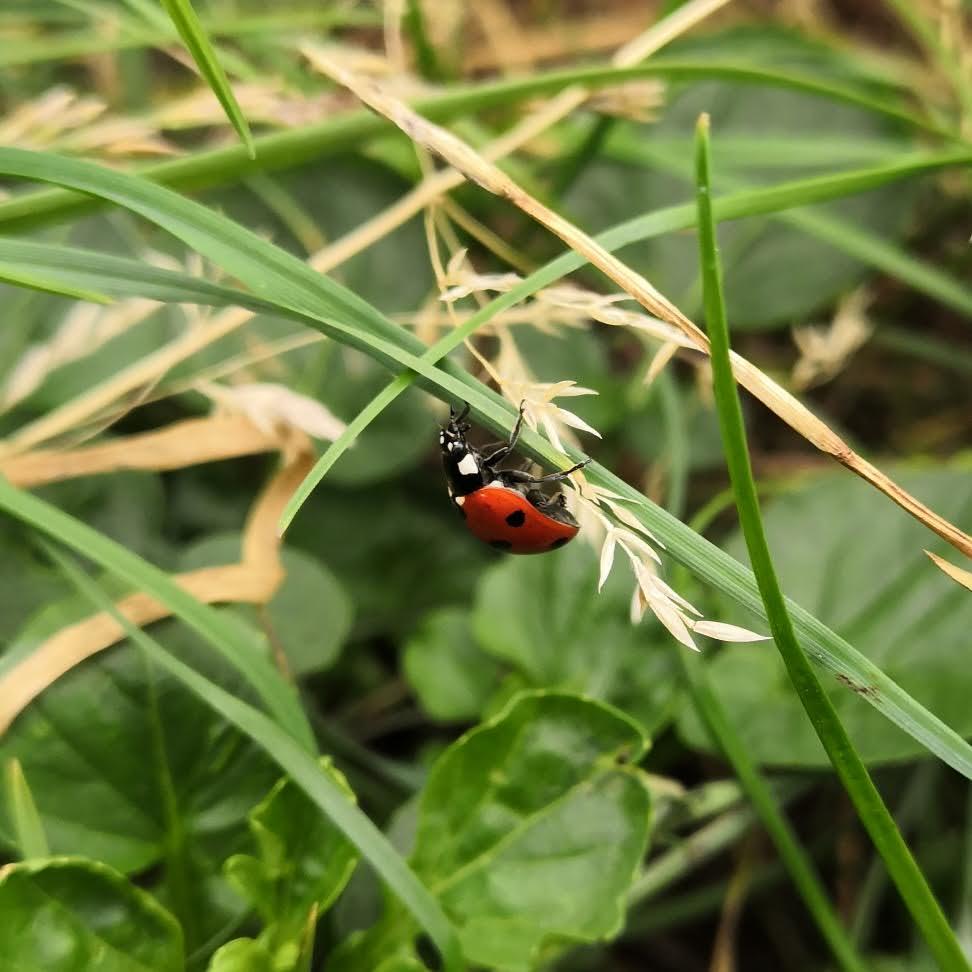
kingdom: Animalia
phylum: Arthropoda
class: Insecta
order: Coleoptera
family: Coccinellidae
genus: Coccinella
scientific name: Coccinella septempunctata
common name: Sevenspotted lady beetle
